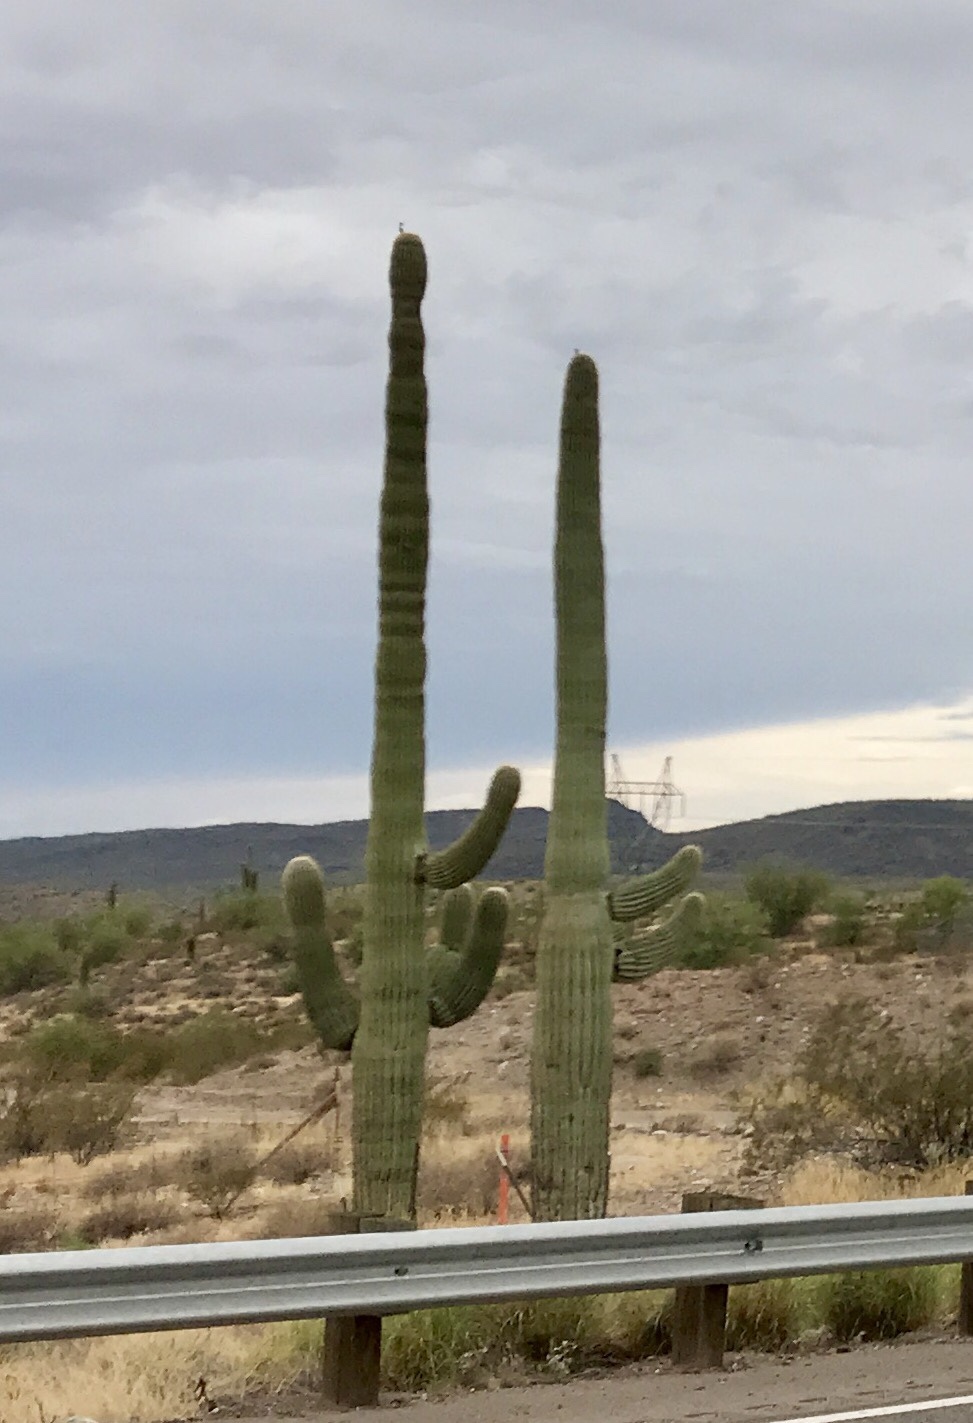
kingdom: Plantae
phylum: Tracheophyta
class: Magnoliopsida
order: Caryophyllales
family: Cactaceae
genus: Carnegiea
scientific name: Carnegiea gigantea
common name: Saguaro
